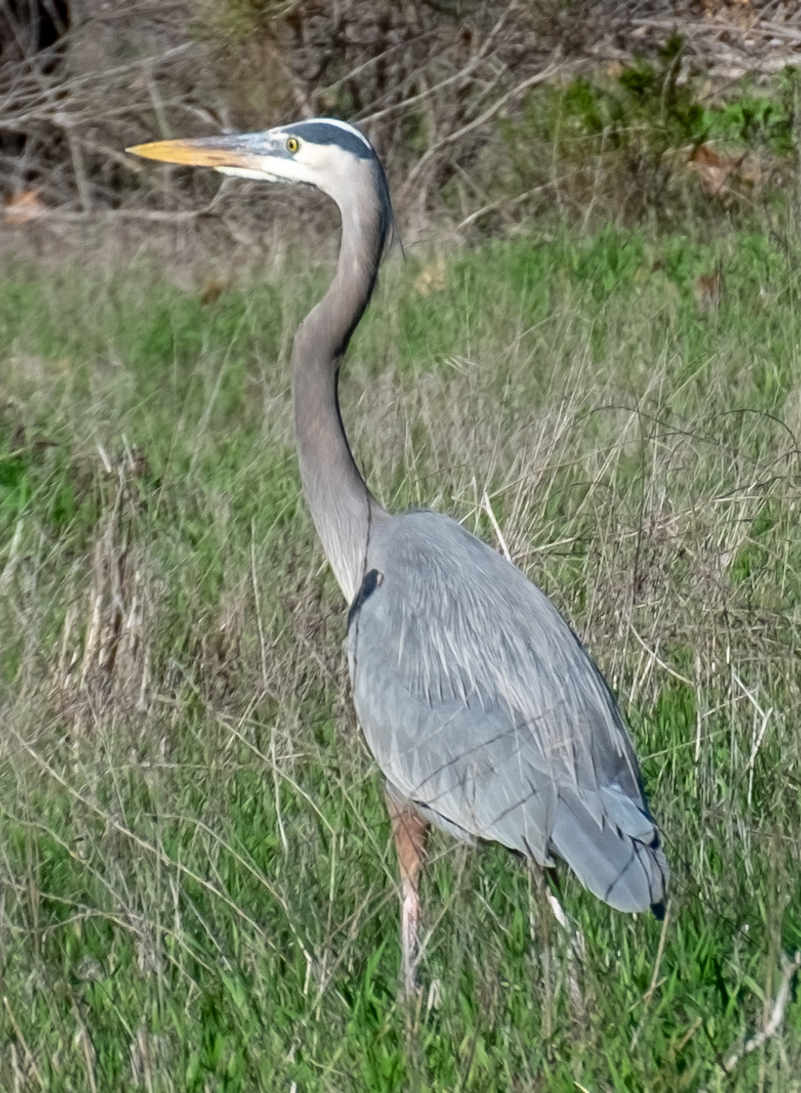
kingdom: Animalia
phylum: Chordata
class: Aves
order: Pelecaniformes
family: Ardeidae
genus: Ardea
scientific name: Ardea herodias
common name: Great blue heron
